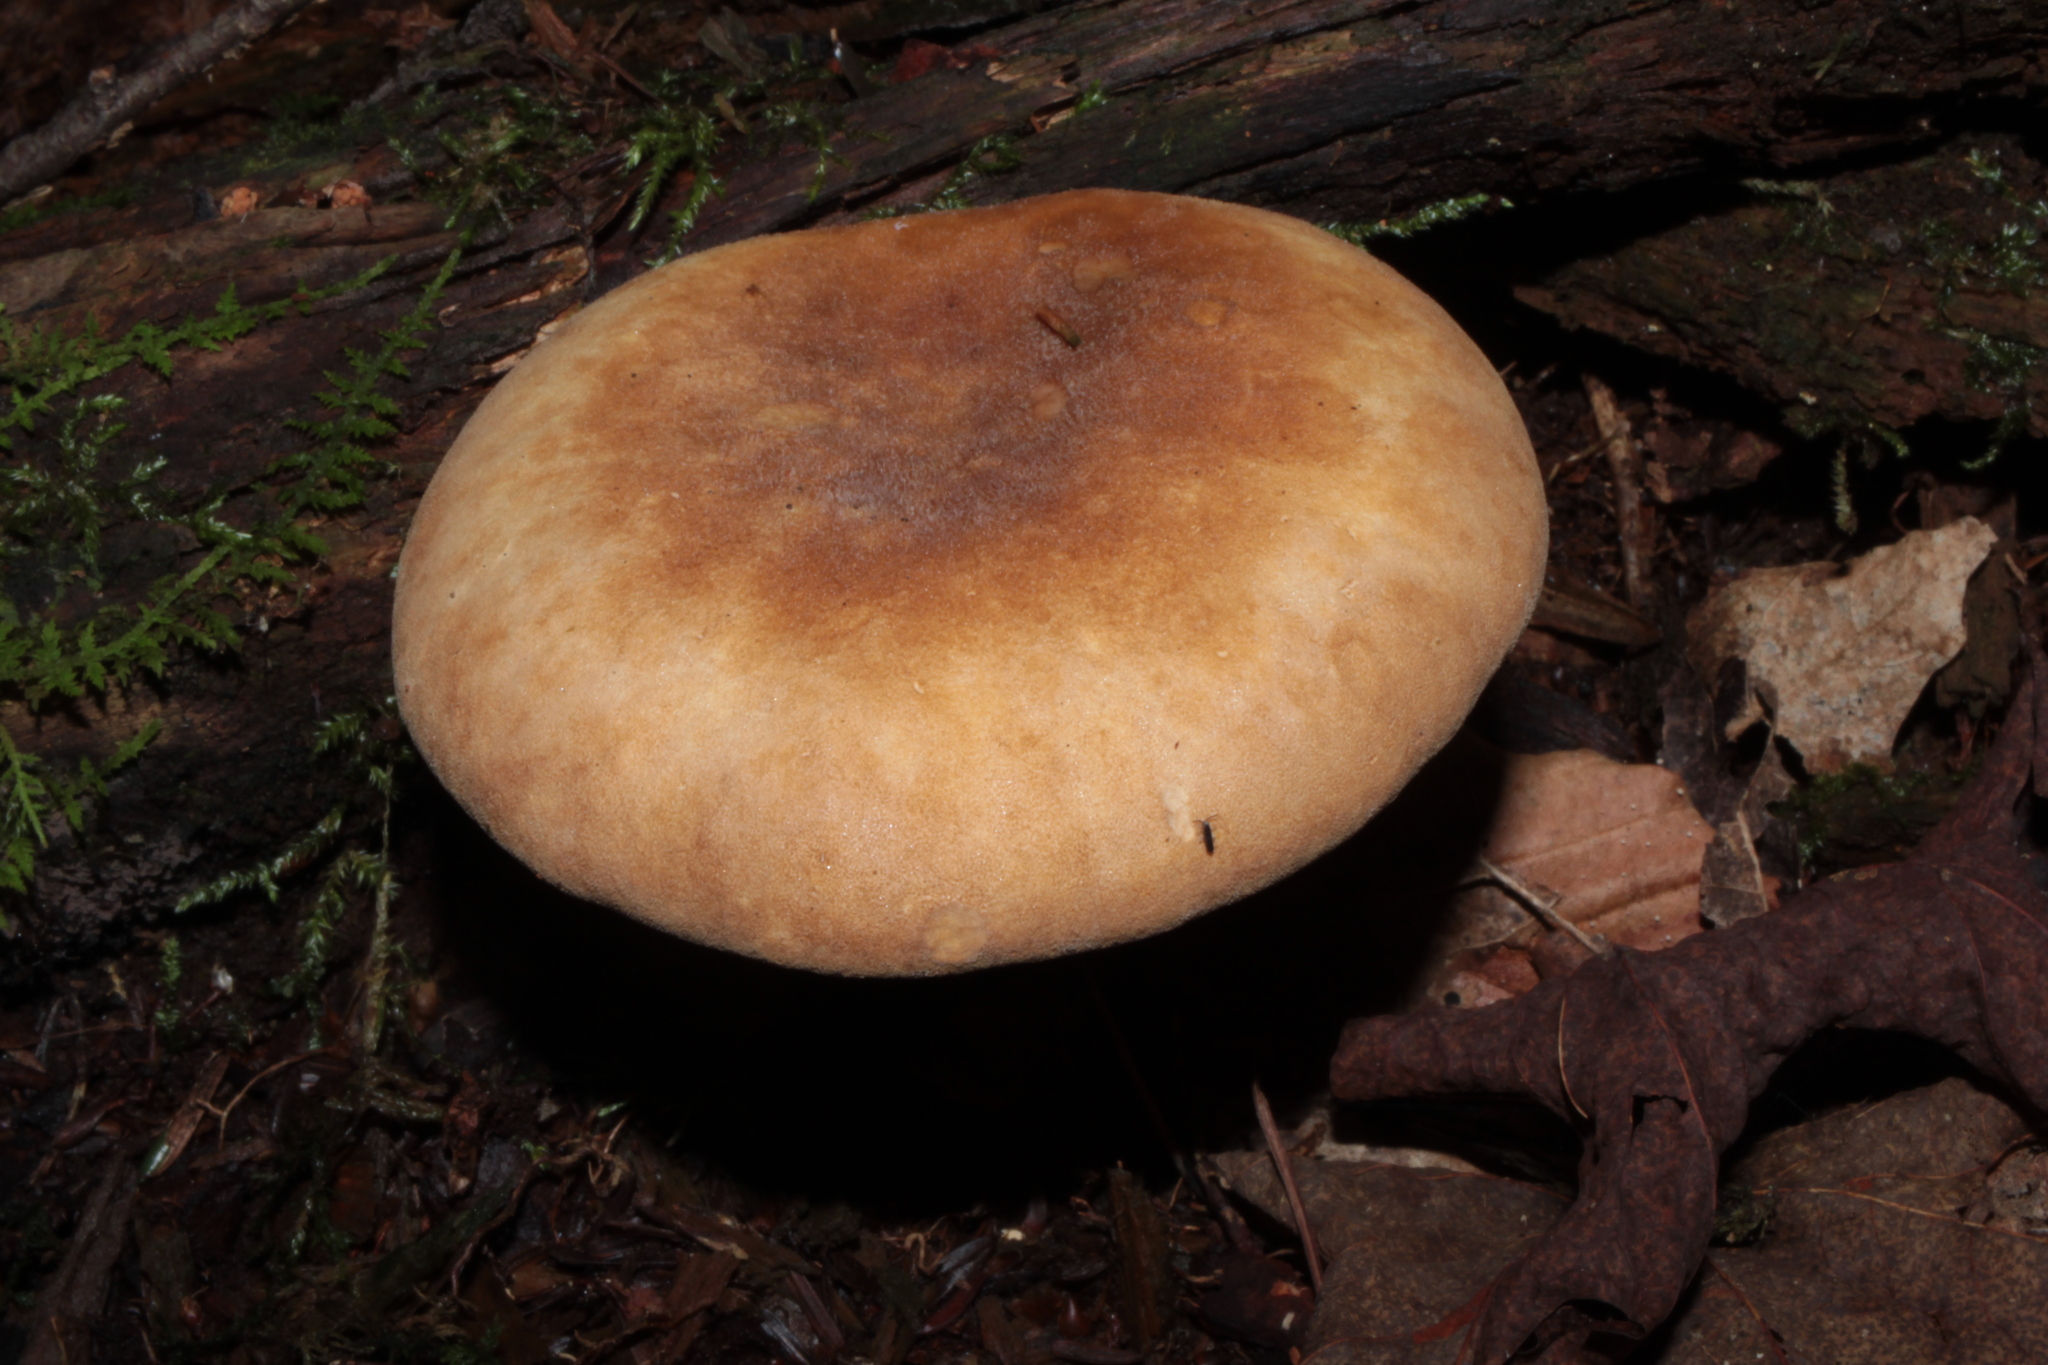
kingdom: Fungi
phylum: Basidiomycota
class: Agaricomycetes
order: Boletales
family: Tapinellaceae
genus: Tapinella
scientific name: Tapinella atrotomentosa
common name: Velvet rollrim
